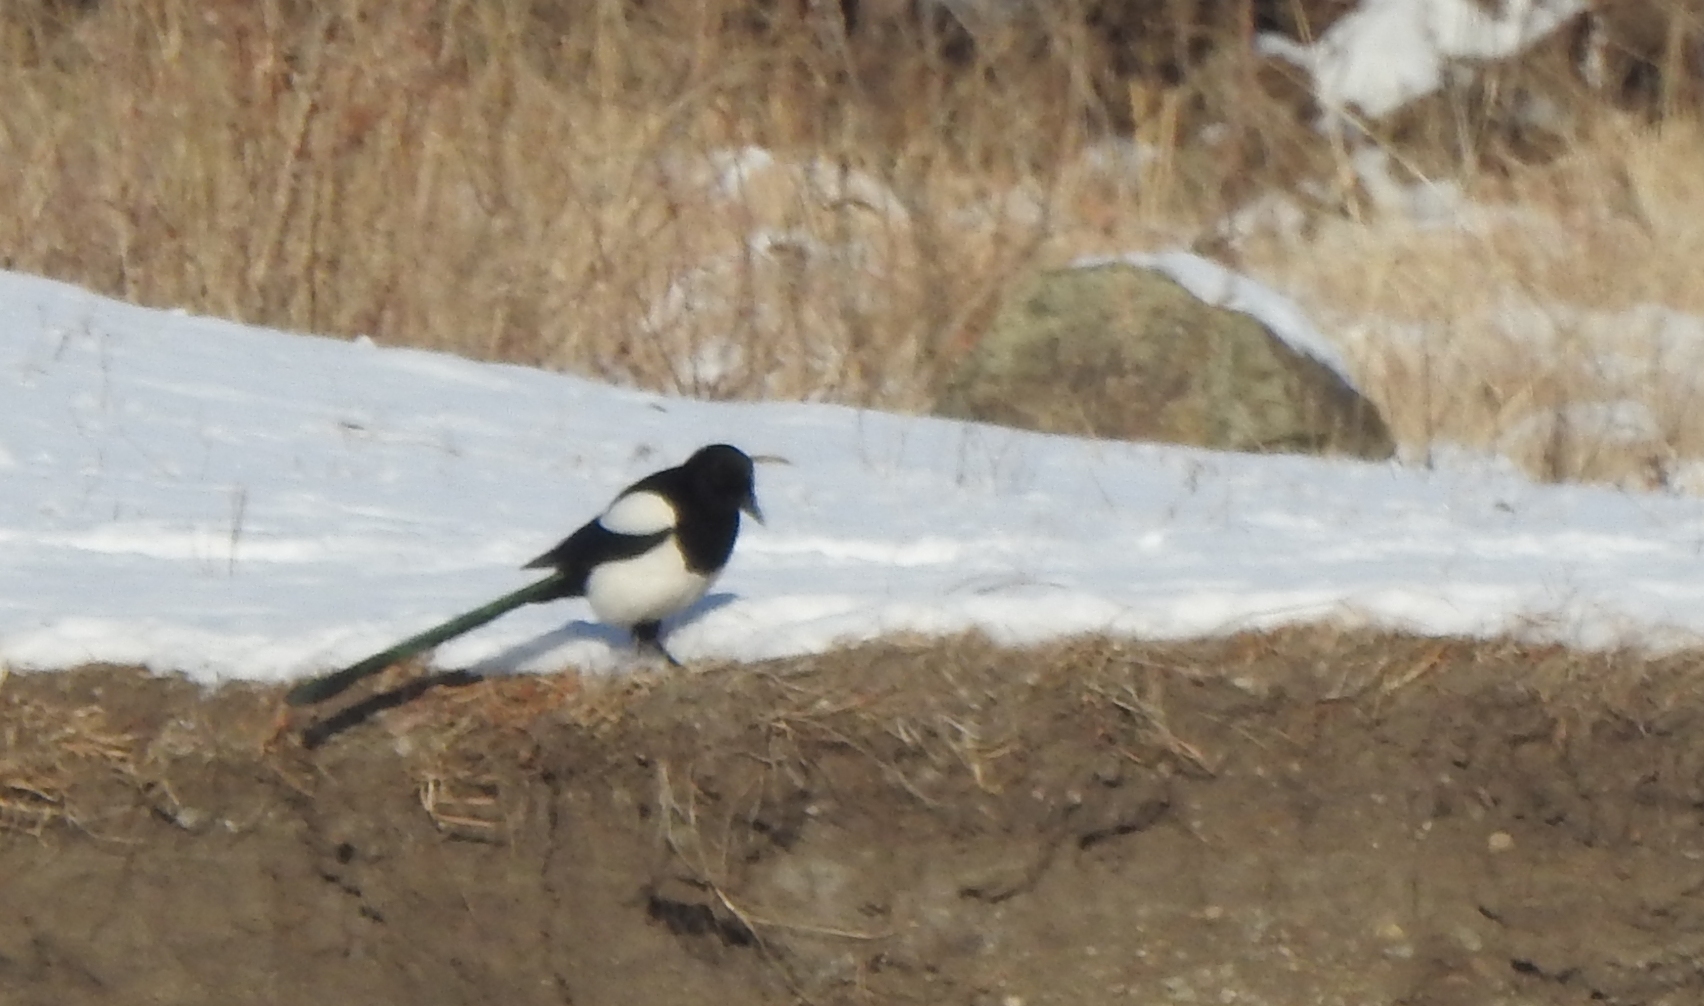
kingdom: Animalia
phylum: Chordata
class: Aves
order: Passeriformes
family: Corvidae
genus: Pica
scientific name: Pica pica
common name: Eurasian magpie
